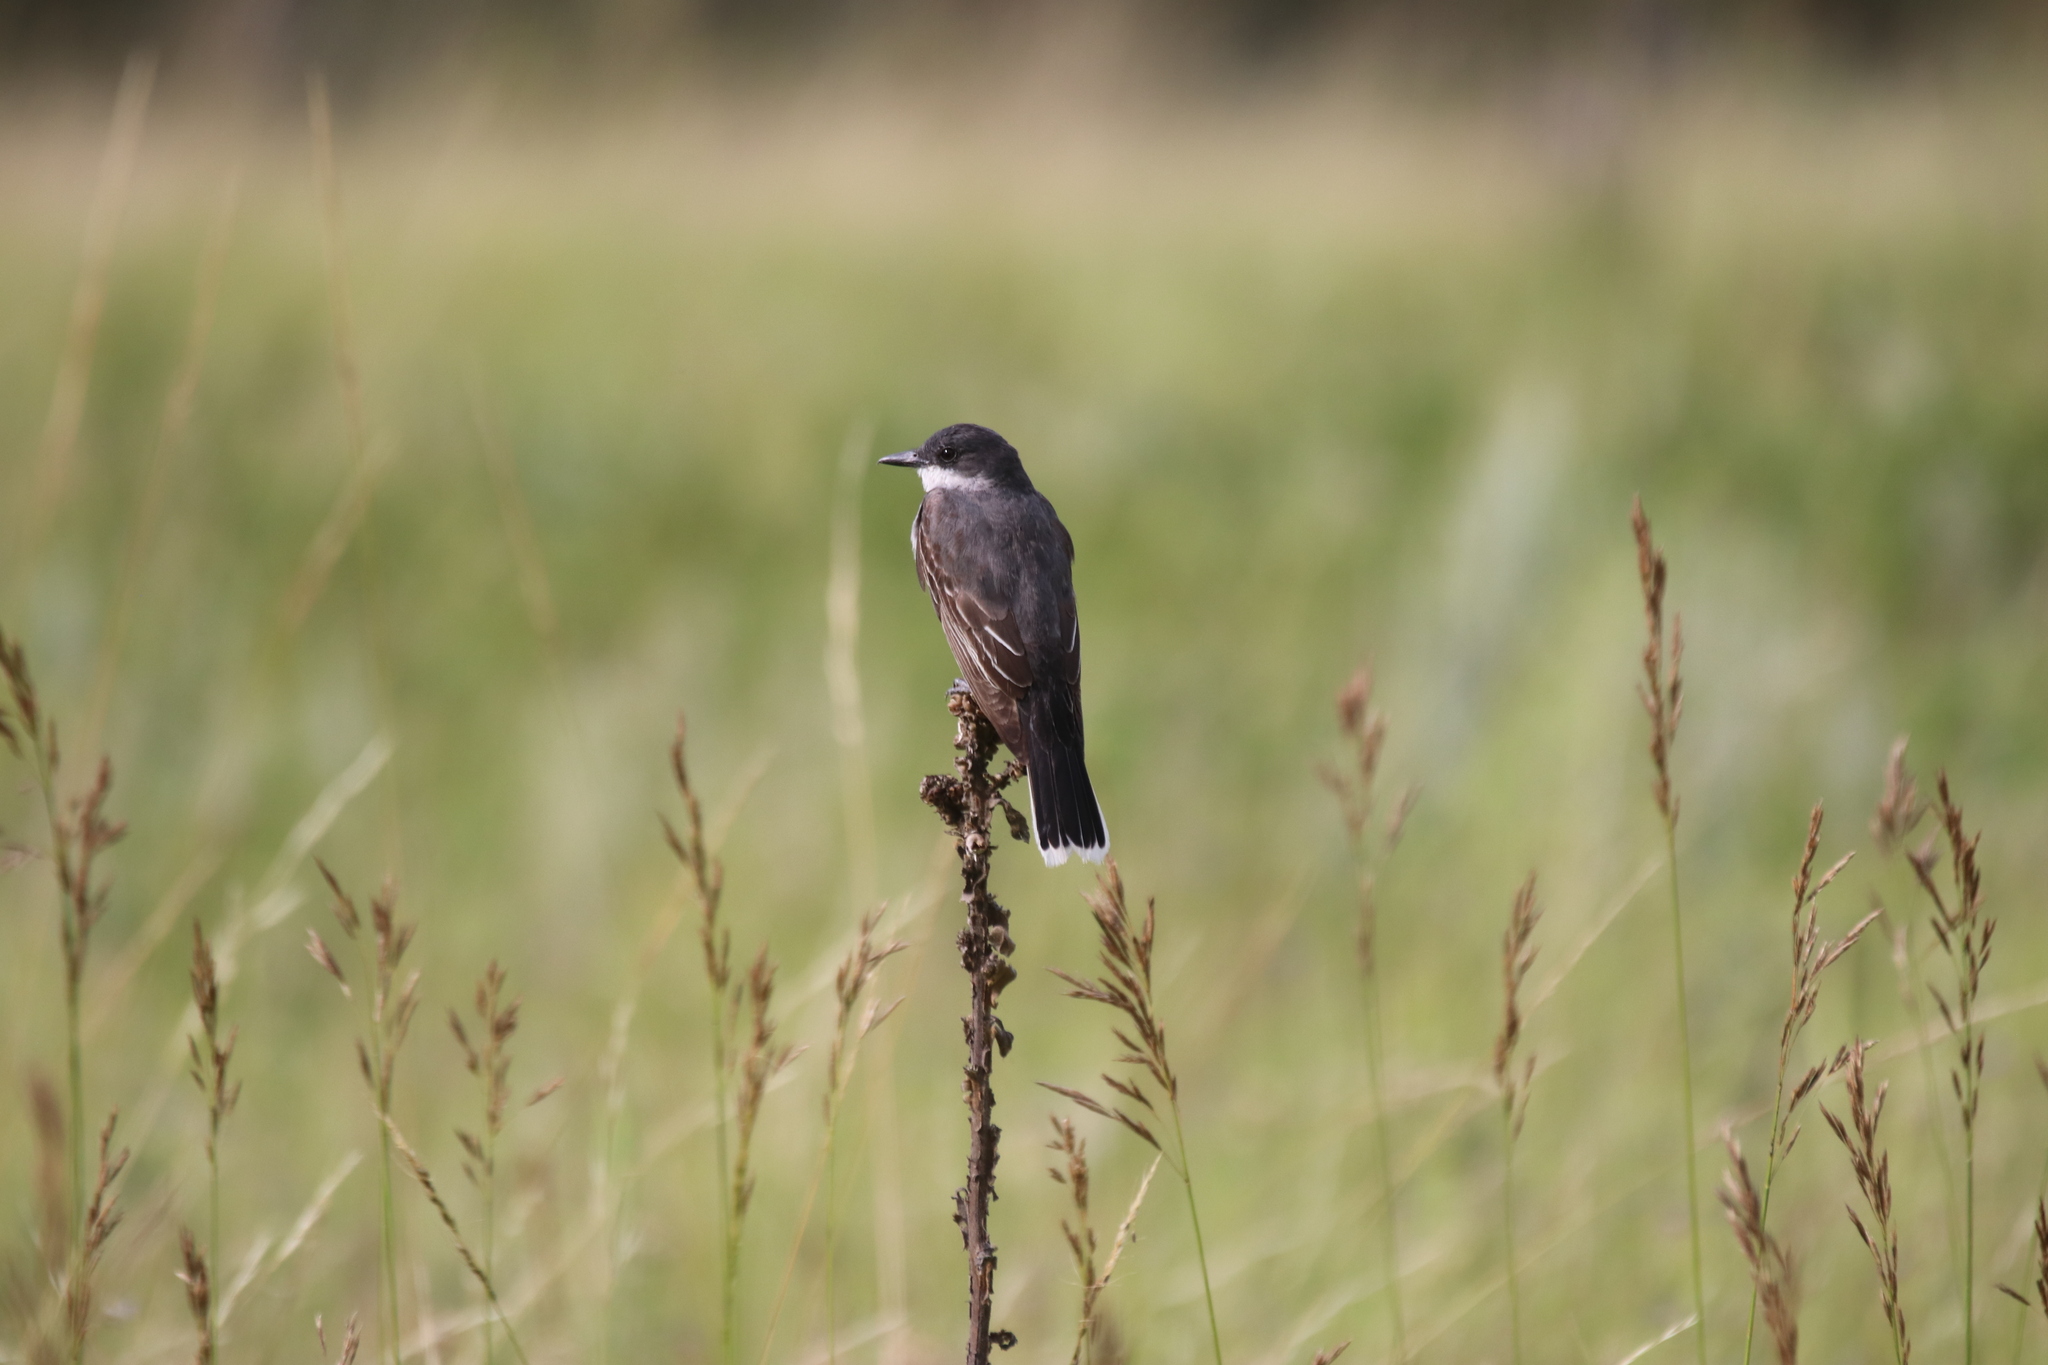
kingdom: Animalia
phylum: Chordata
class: Aves
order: Passeriformes
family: Tyrannidae
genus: Tyrannus
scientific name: Tyrannus tyrannus
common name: Eastern kingbird
